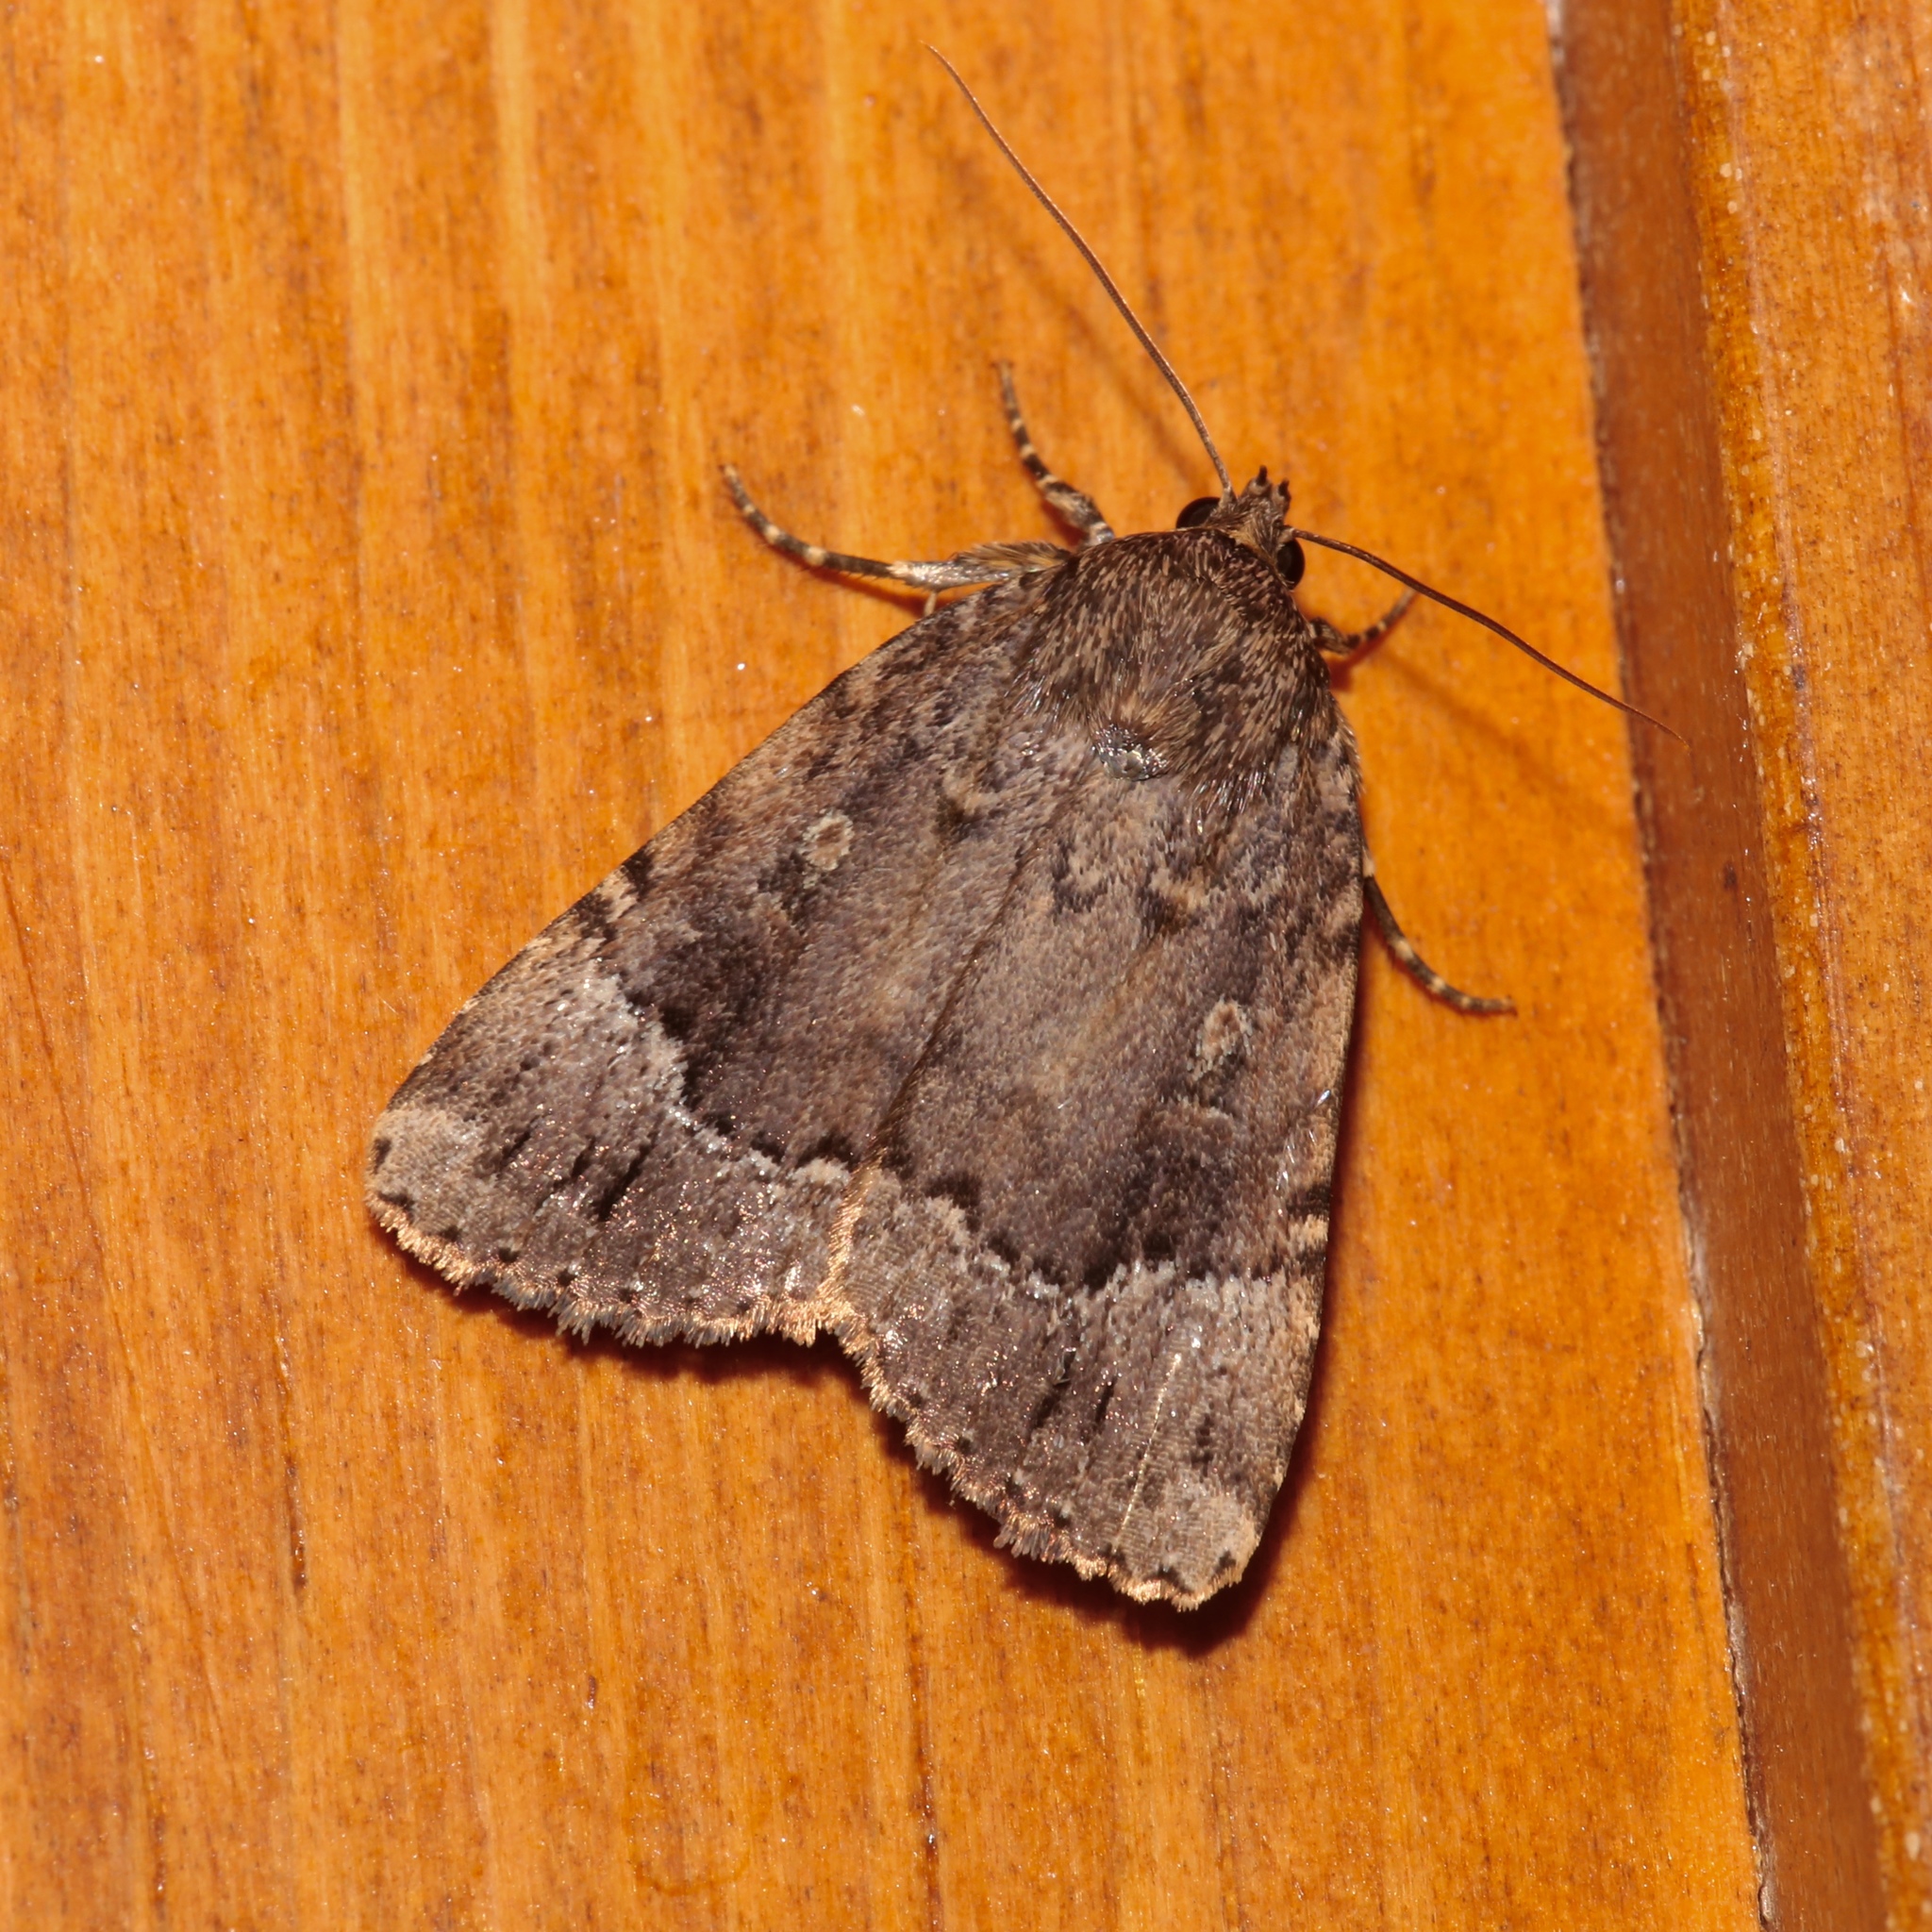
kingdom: Animalia
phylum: Arthropoda
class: Insecta
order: Lepidoptera
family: Noctuidae
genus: Amphipyra
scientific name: Amphipyra pyramidoides
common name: American copper underwing
